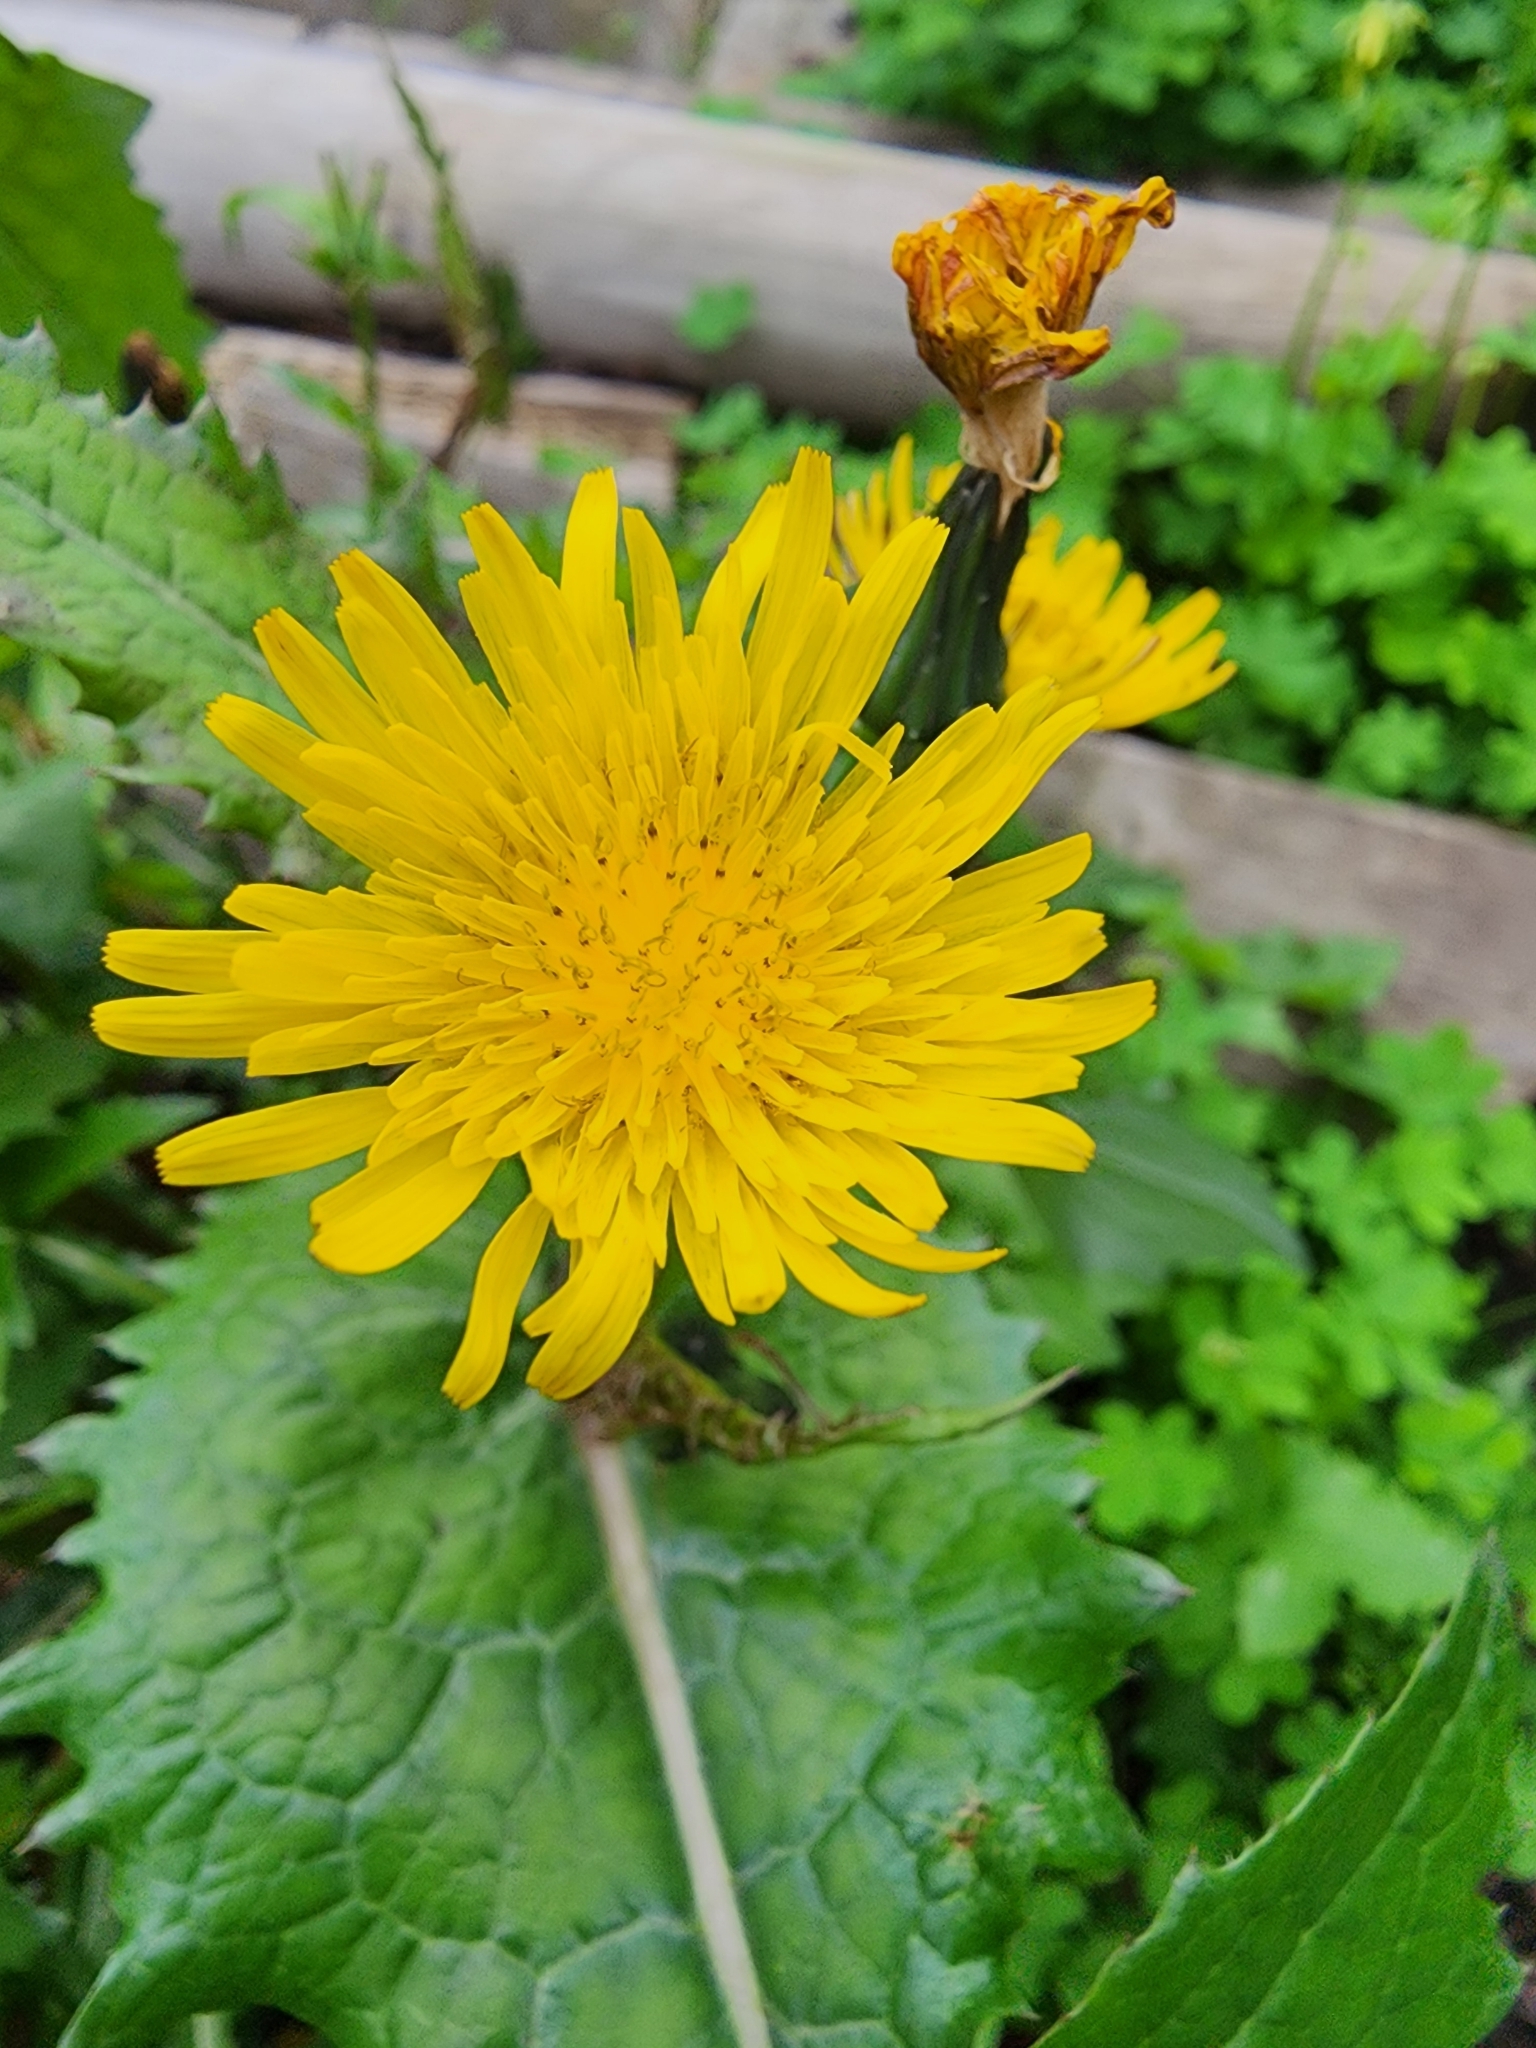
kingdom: Plantae
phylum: Tracheophyta
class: Magnoliopsida
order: Asterales
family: Asteraceae
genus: Sonchus
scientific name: Sonchus oleraceus
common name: Common sowthistle
